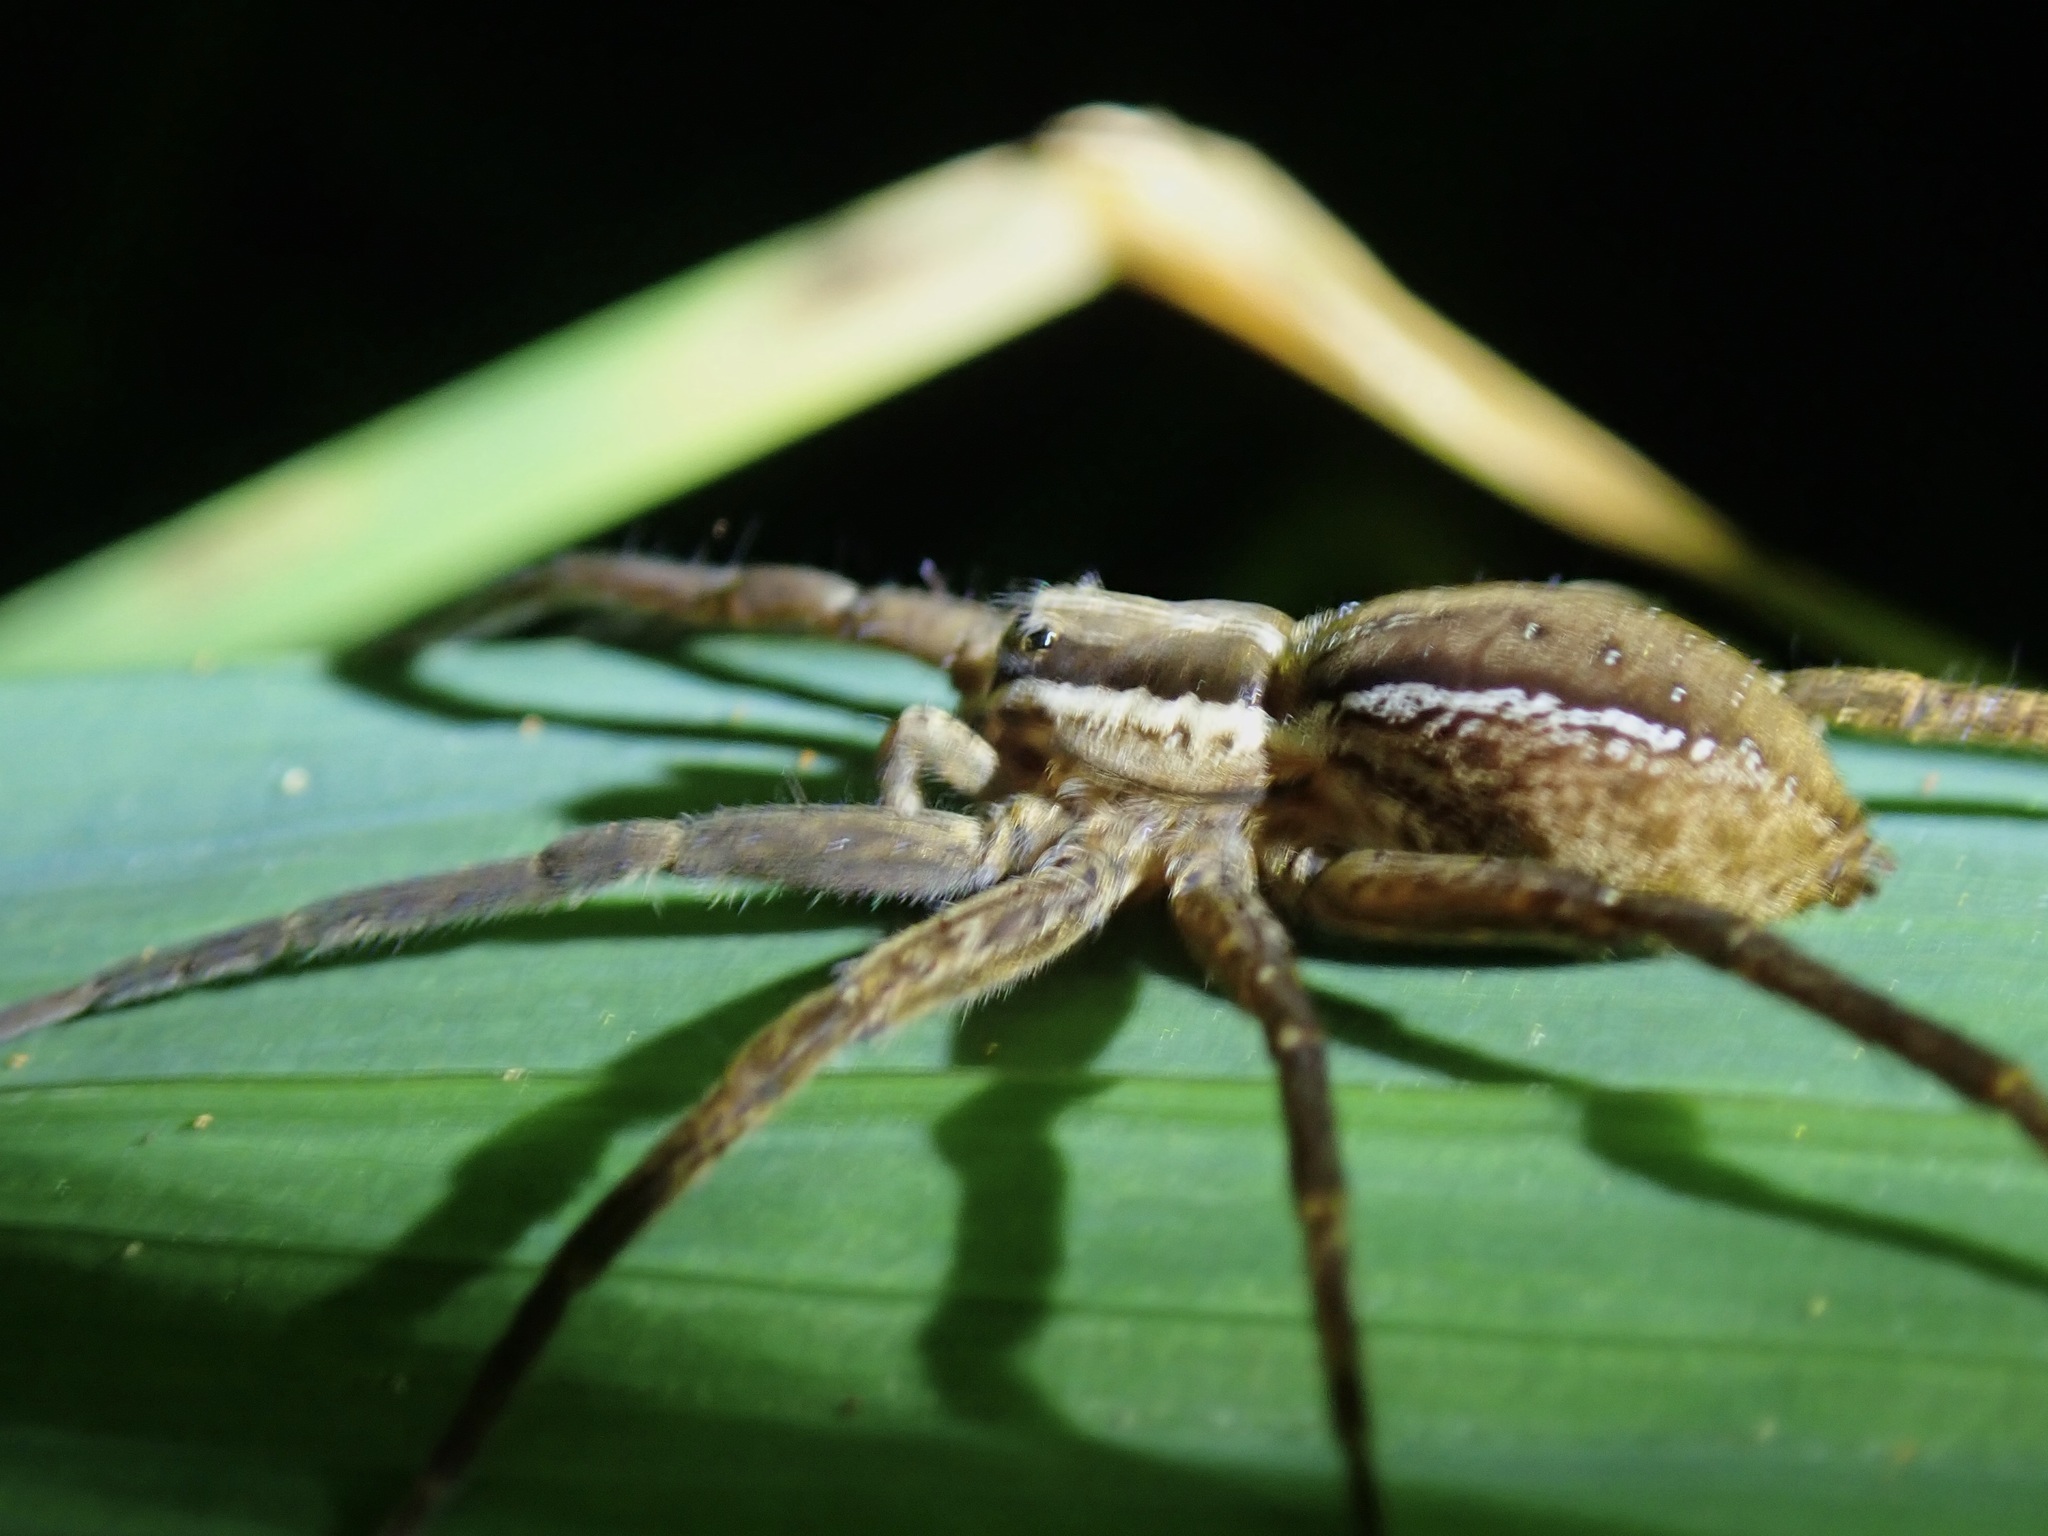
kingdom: Animalia
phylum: Arthropoda
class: Arachnida
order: Araneae
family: Pisauridae
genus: Dolomedes
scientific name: Dolomedes minor
